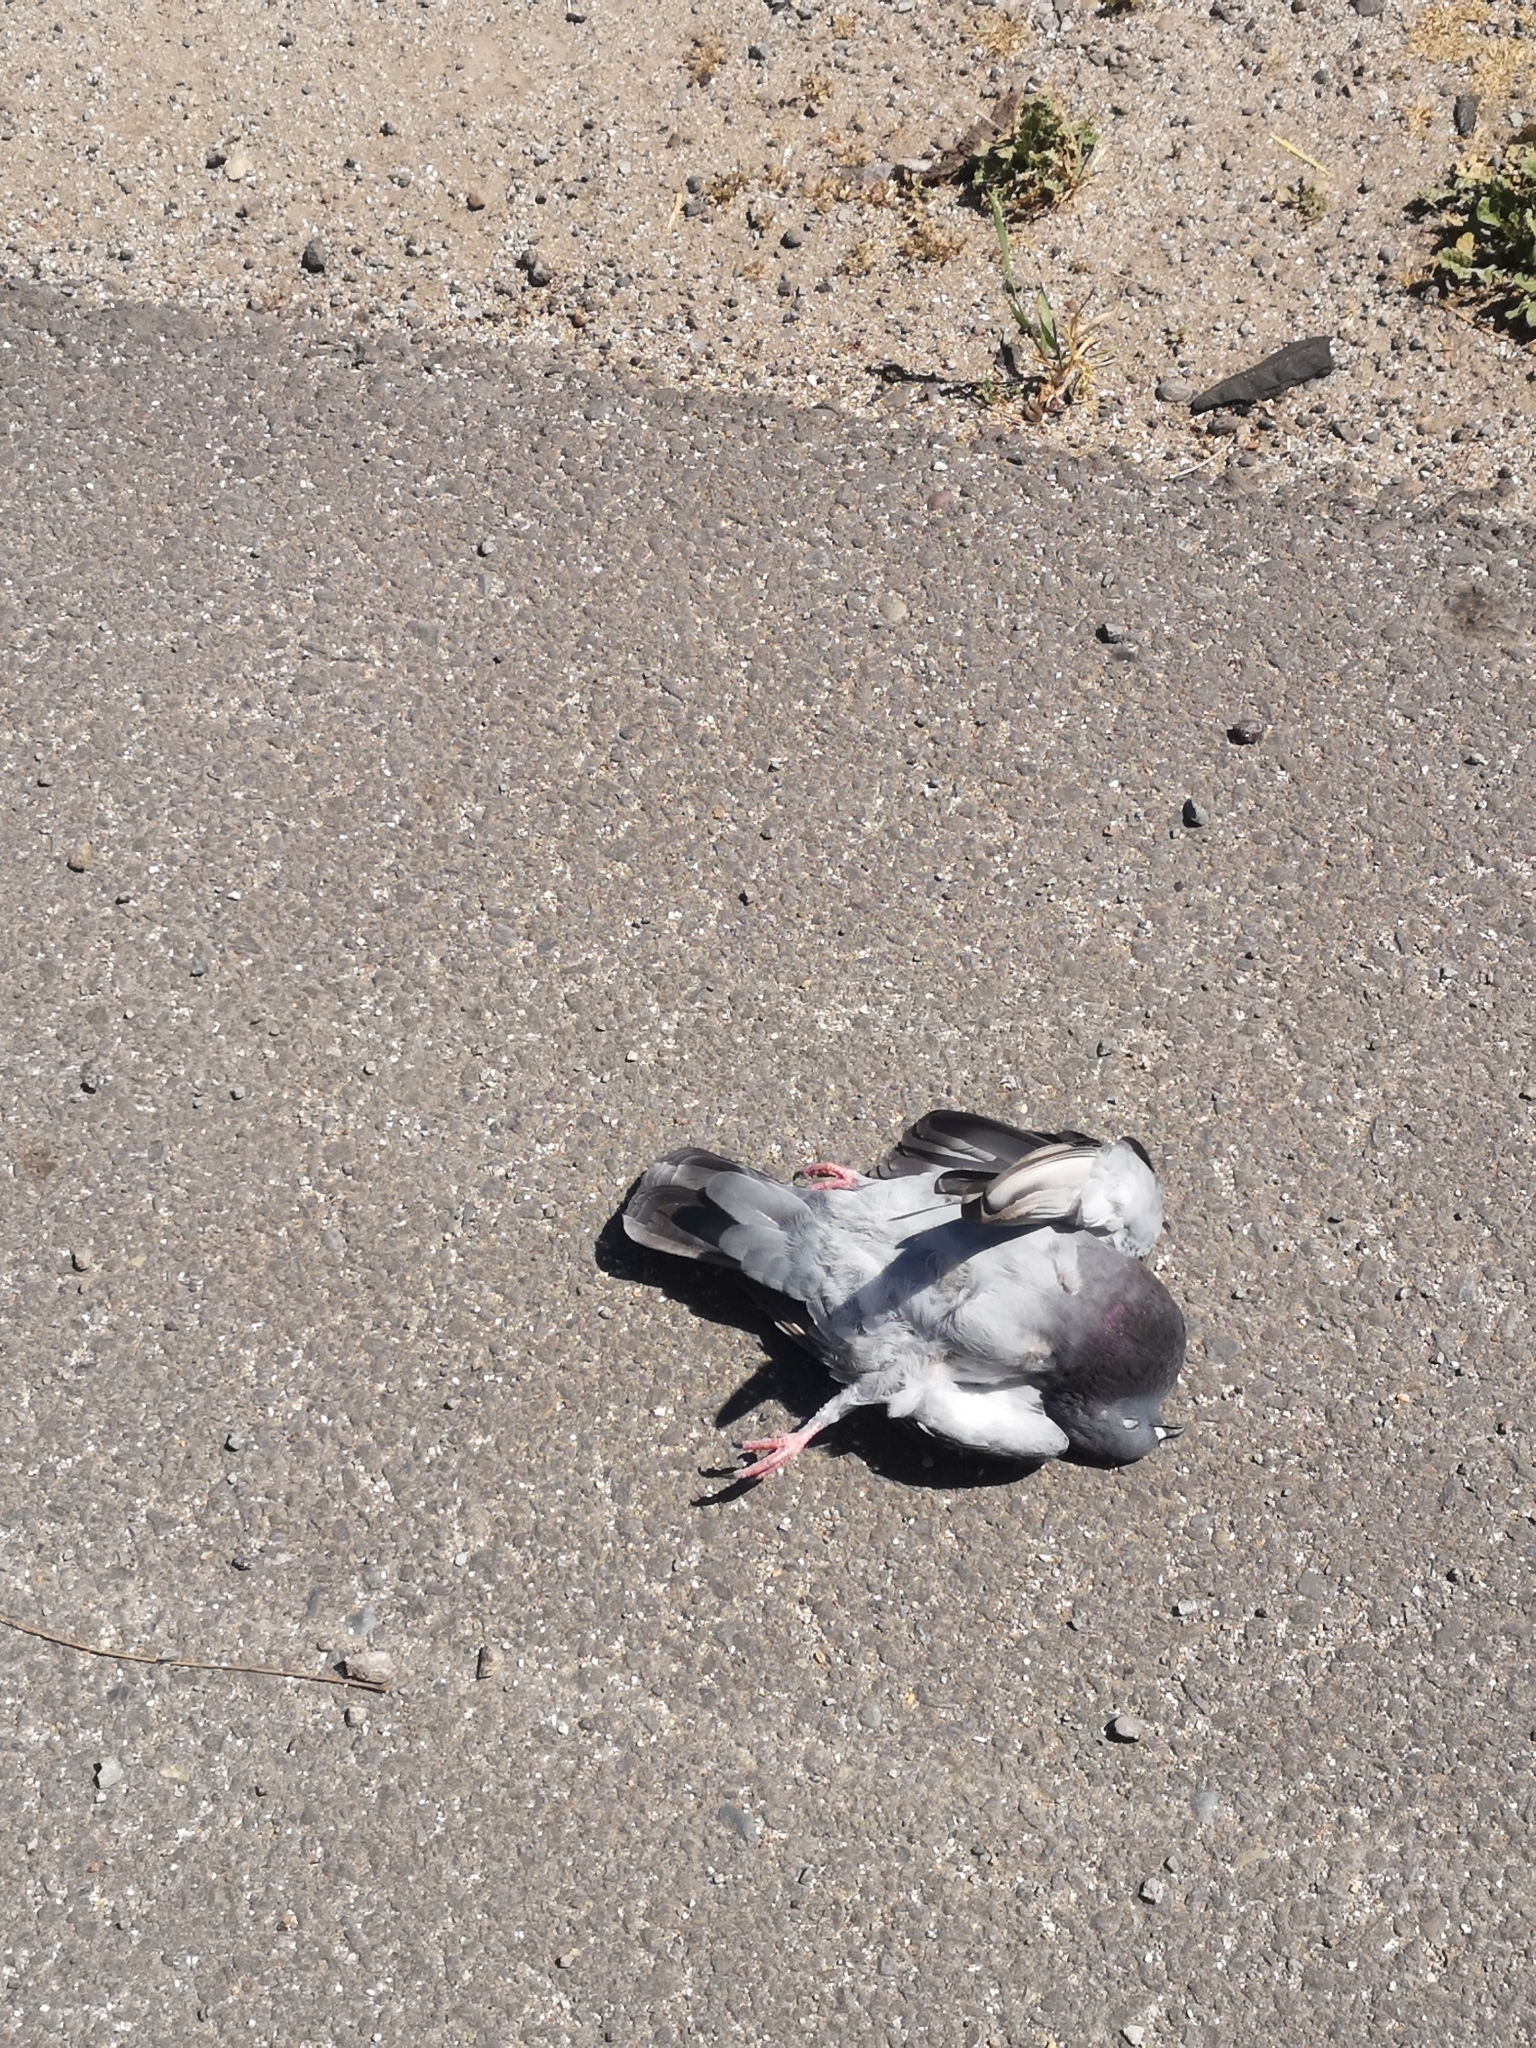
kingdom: Animalia
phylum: Chordata
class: Aves
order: Columbiformes
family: Columbidae
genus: Columba
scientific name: Columba livia
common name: Rock pigeon
